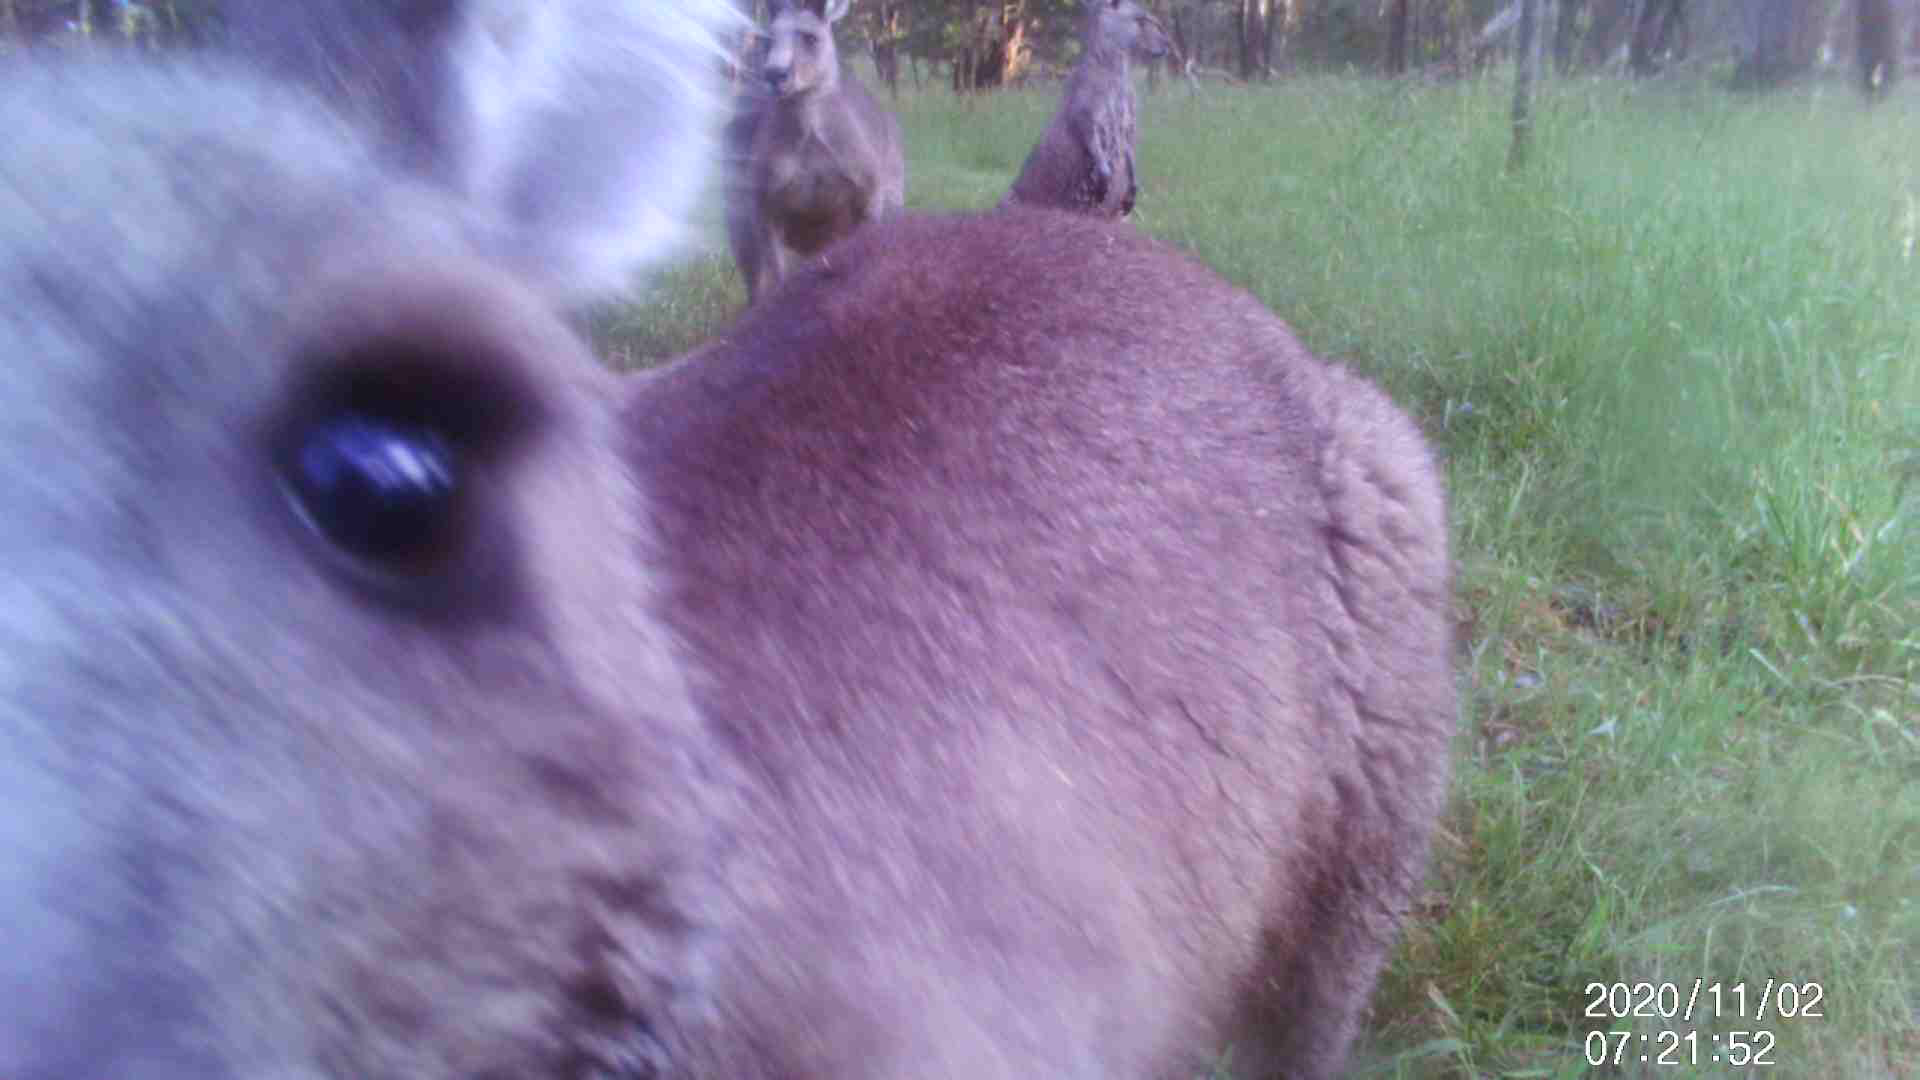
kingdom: Animalia
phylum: Chordata
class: Mammalia
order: Diprotodontia
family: Macropodidae
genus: Macropus
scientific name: Macropus giganteus
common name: Eastern grey kangaroo
